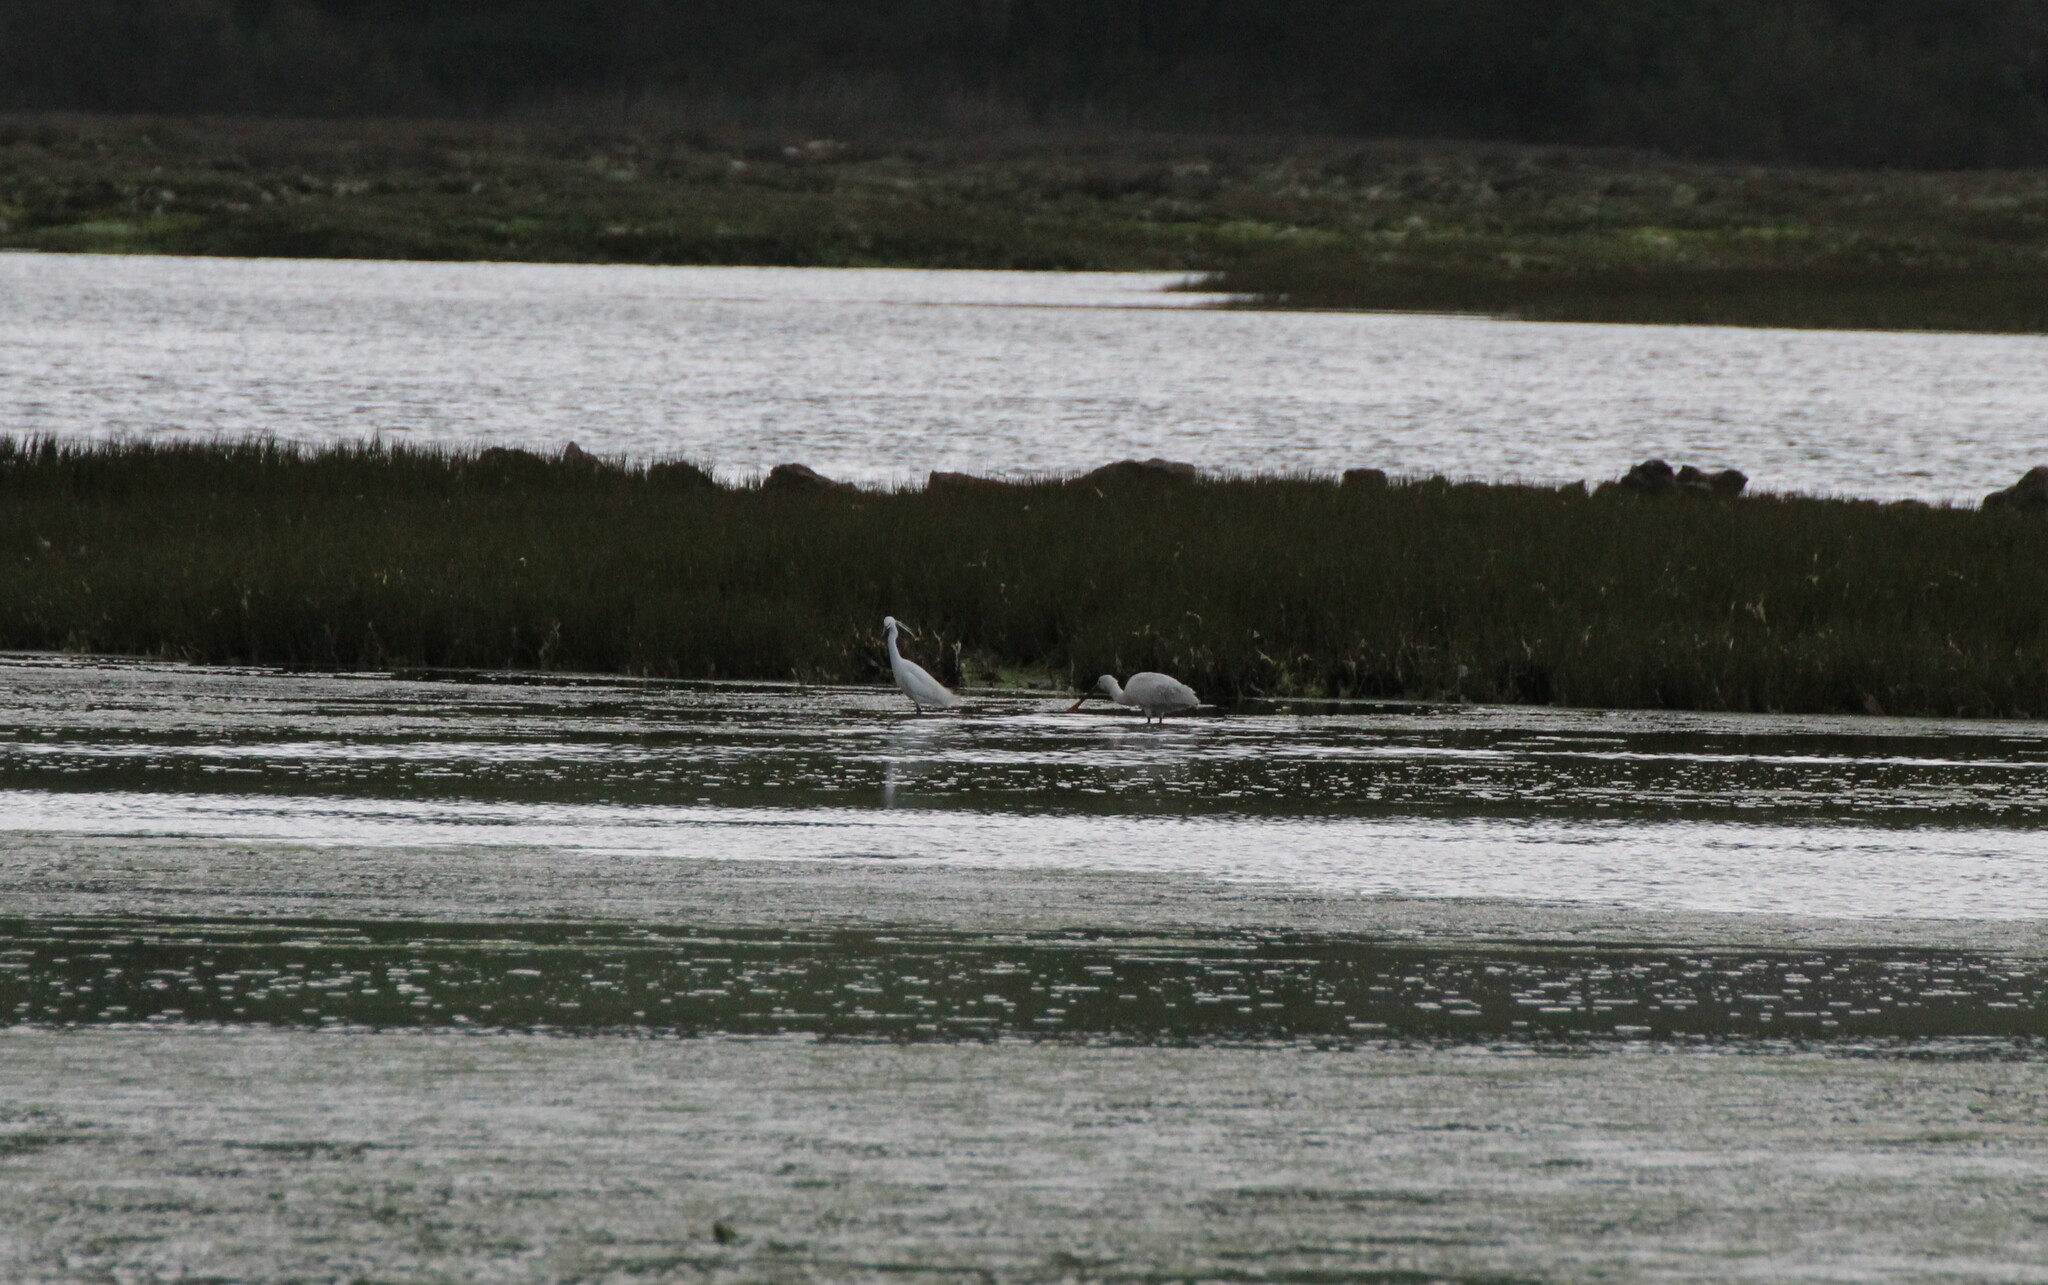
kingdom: Animalia
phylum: Chordata
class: Aves
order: Pelecaniformes
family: Threskiornithidae
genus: Platalea
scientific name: Platalea leucorodia
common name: Eurasian spoonbill
